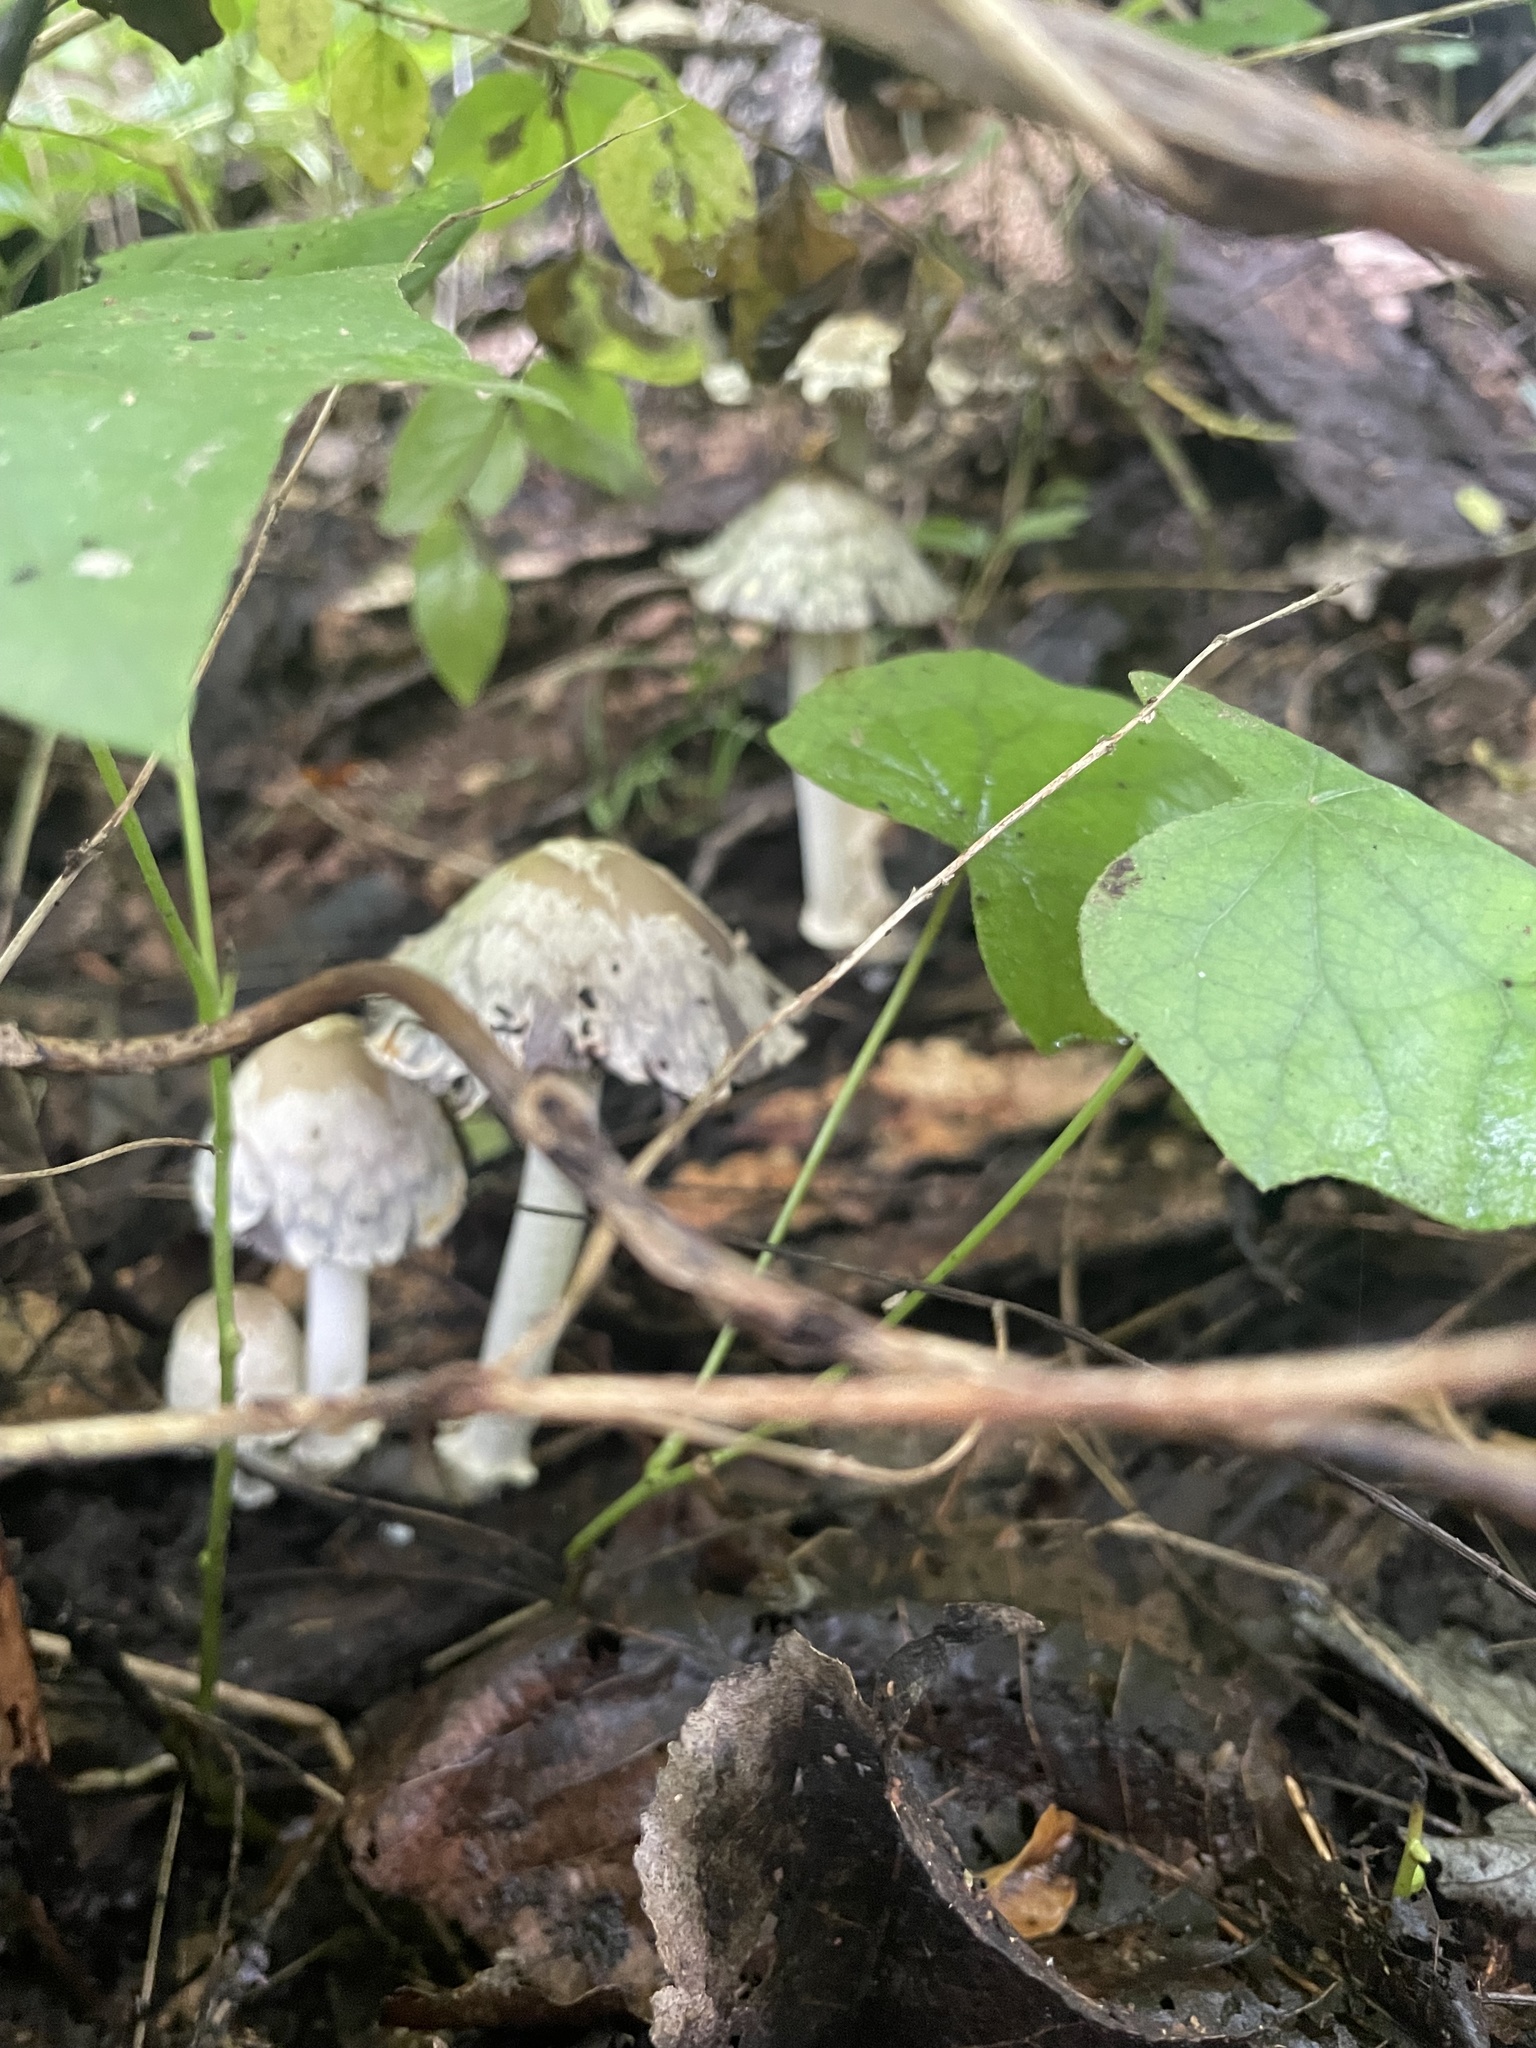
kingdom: Fungi
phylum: Basidiomycota
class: Agaricomycetes
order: Agaricales
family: Psathyrellaceae
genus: Coprinopsis
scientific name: Coprinopsis variegata
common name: Scaly ink cap
